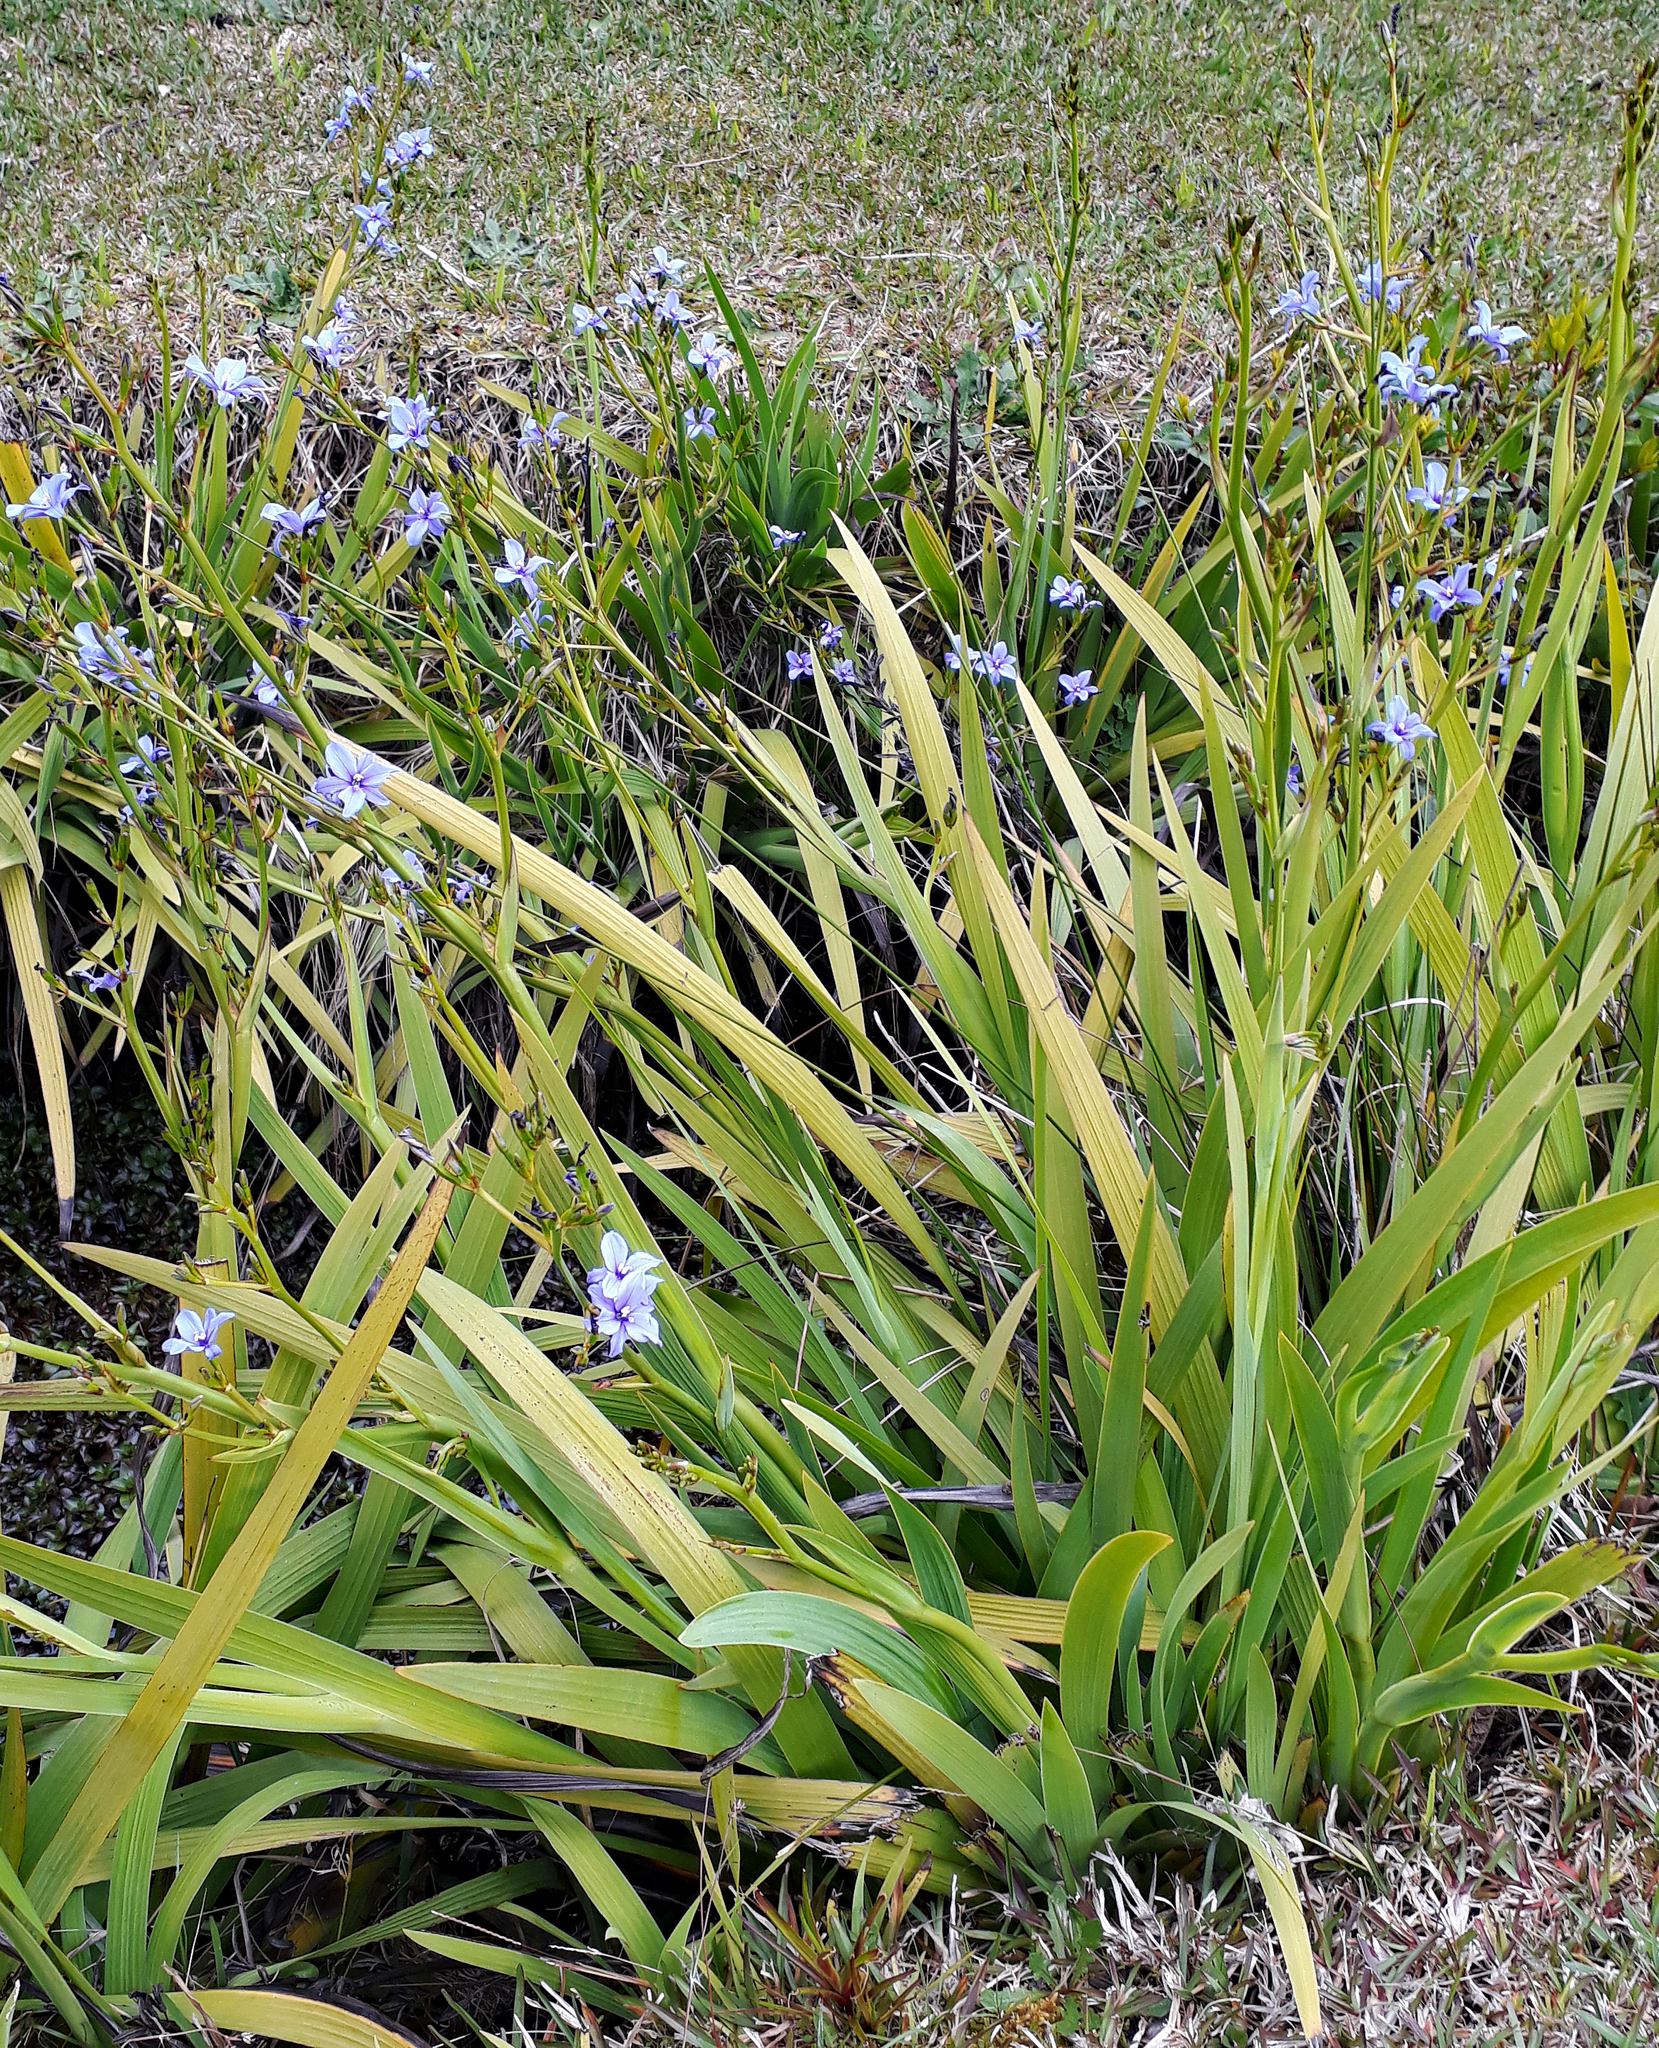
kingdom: Plantae
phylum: Tracheophyta
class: Liliopsida
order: Asparagales
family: Iridaceae
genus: Aristea
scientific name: Aristea ecklonii
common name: Blue corn-lily
